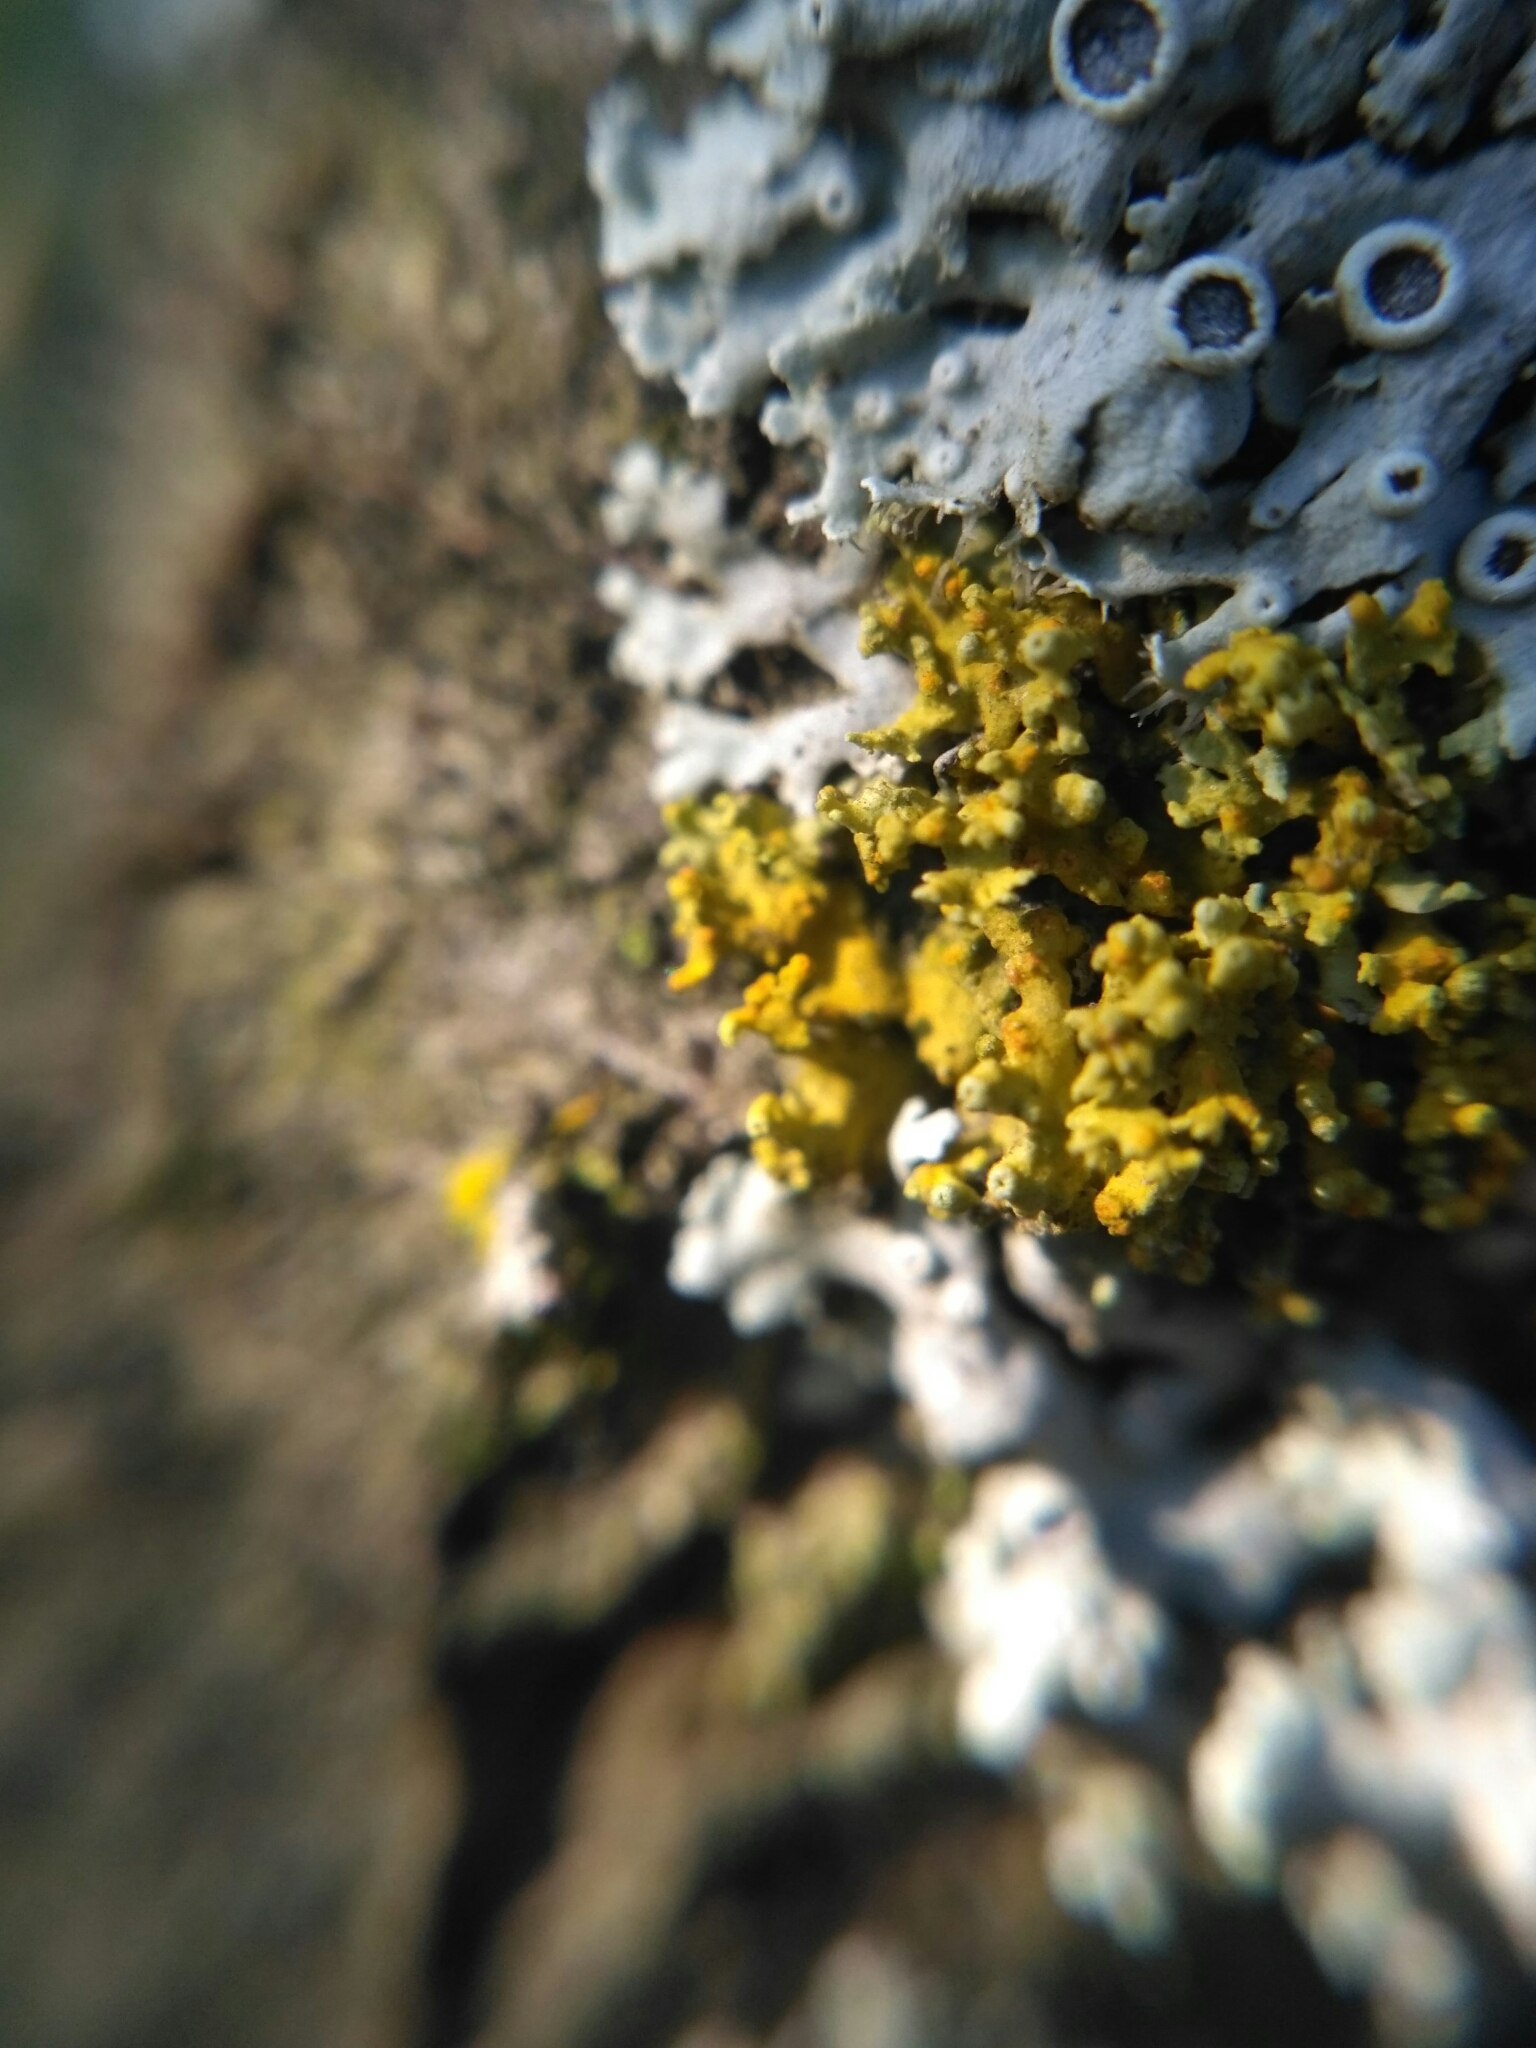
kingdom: Fungi
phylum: Ascomycota
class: Lecanoromycetes
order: Teloschistales
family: Teloschistaceae
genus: Polycauliona
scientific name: Polycauliona polycarpa
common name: Pin-cushion sunburst lichen
